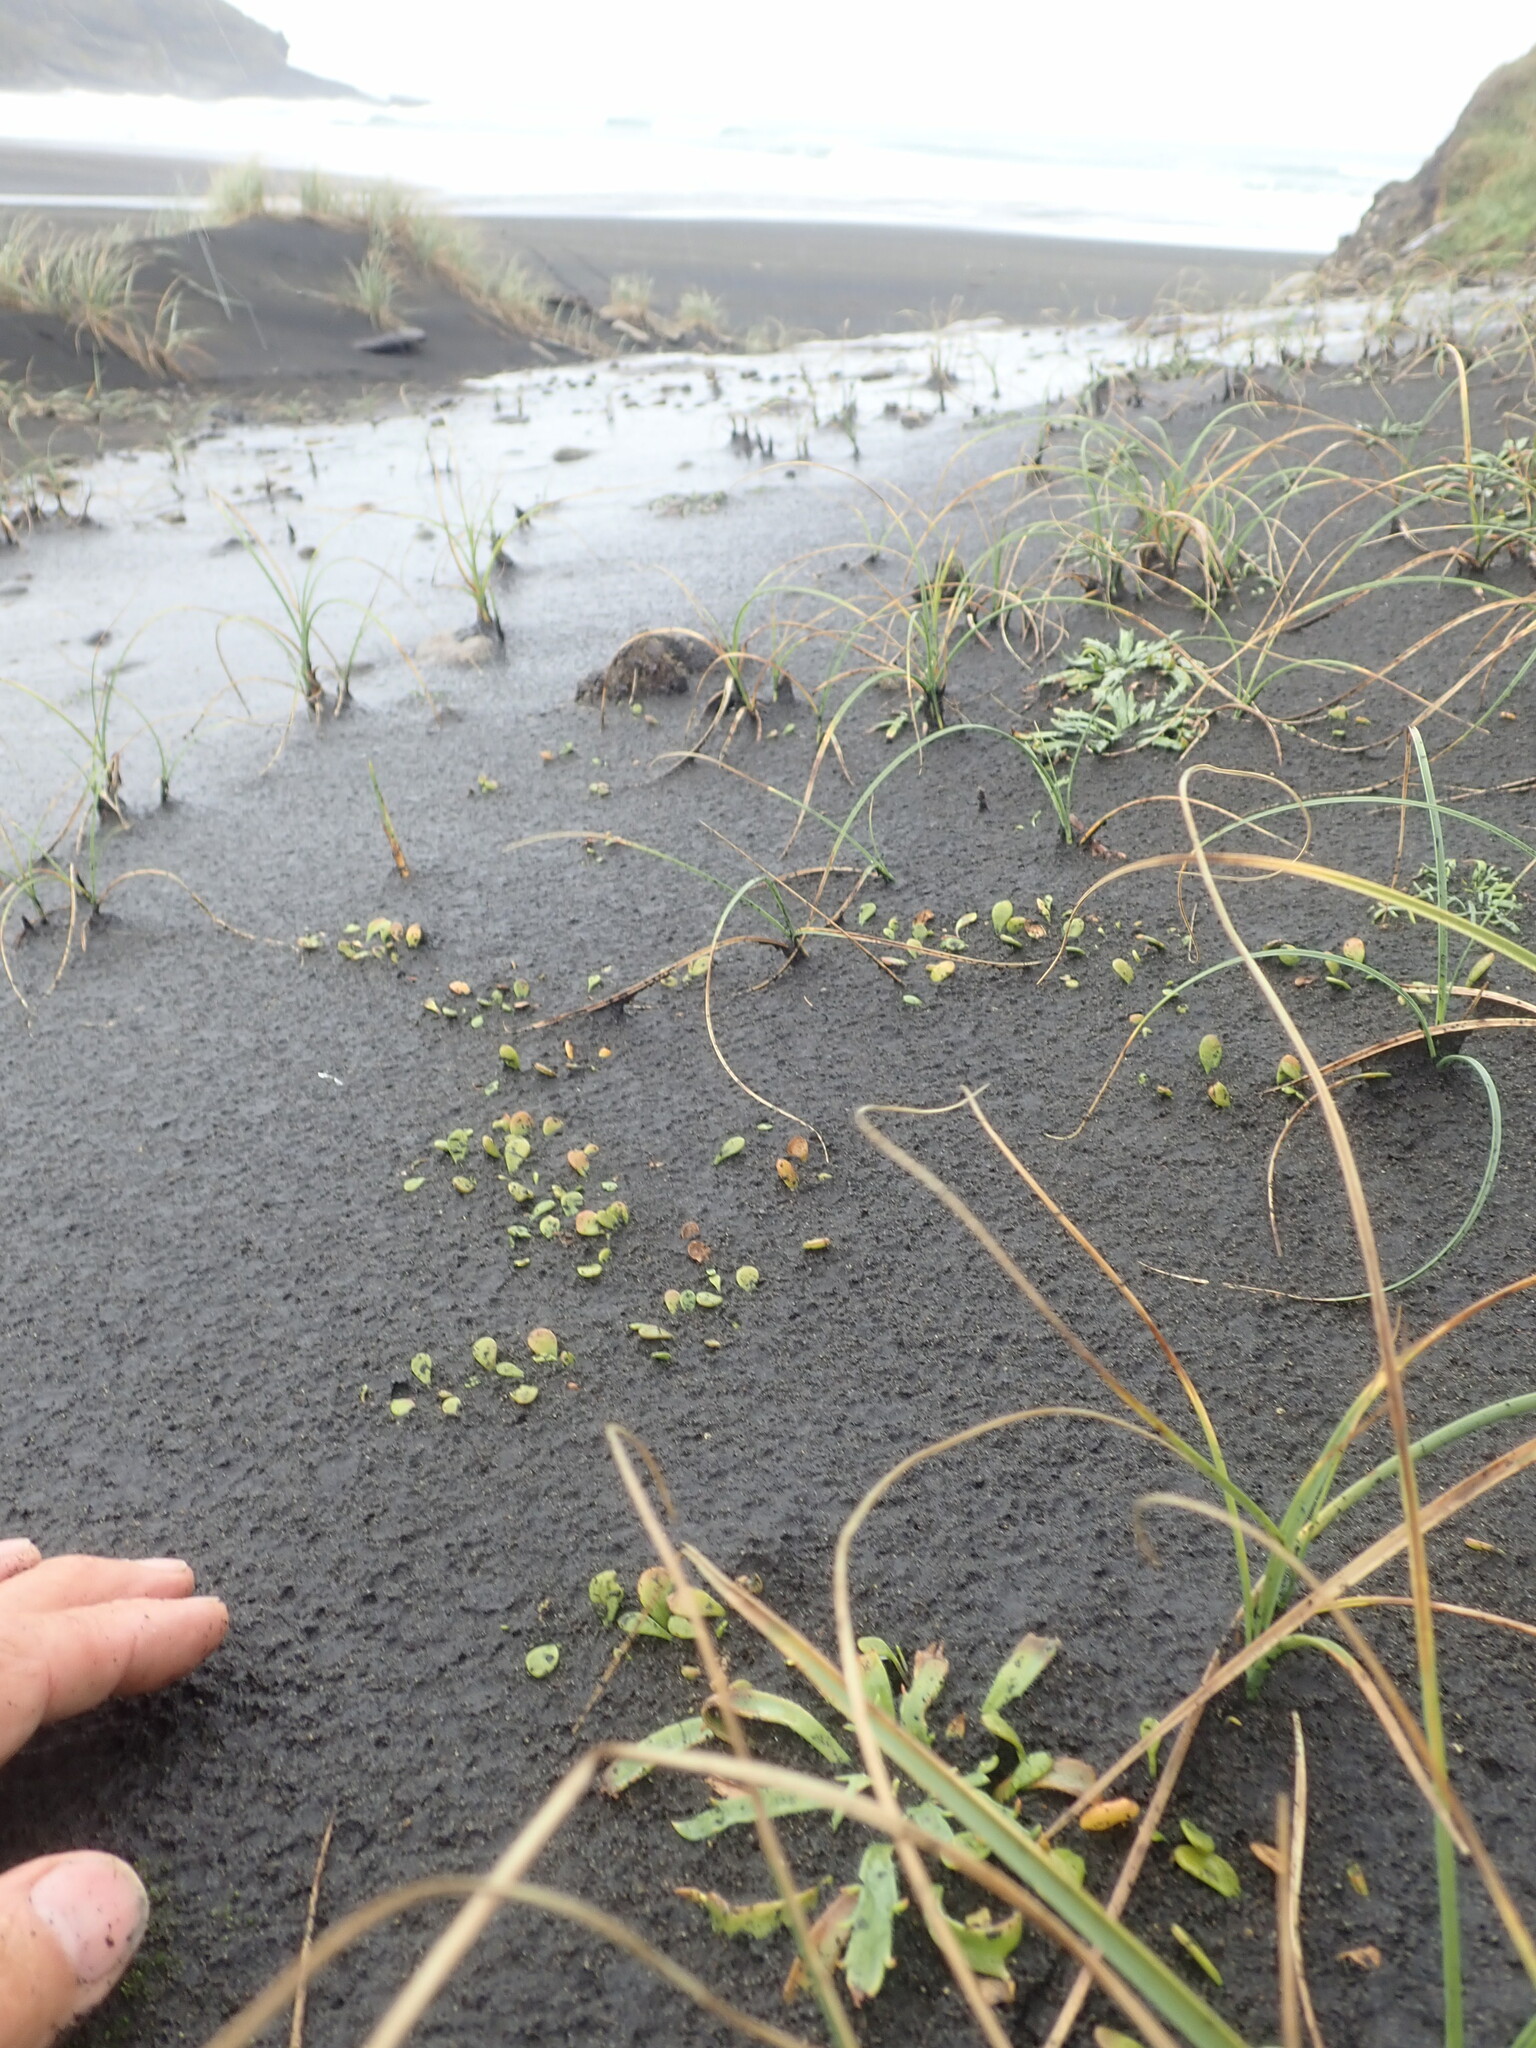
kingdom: Plantae
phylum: Tracheophyta
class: Magnoliopsida
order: Asterales
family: Goodeniaceae
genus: Goodenia
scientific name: Goodenia radicans
